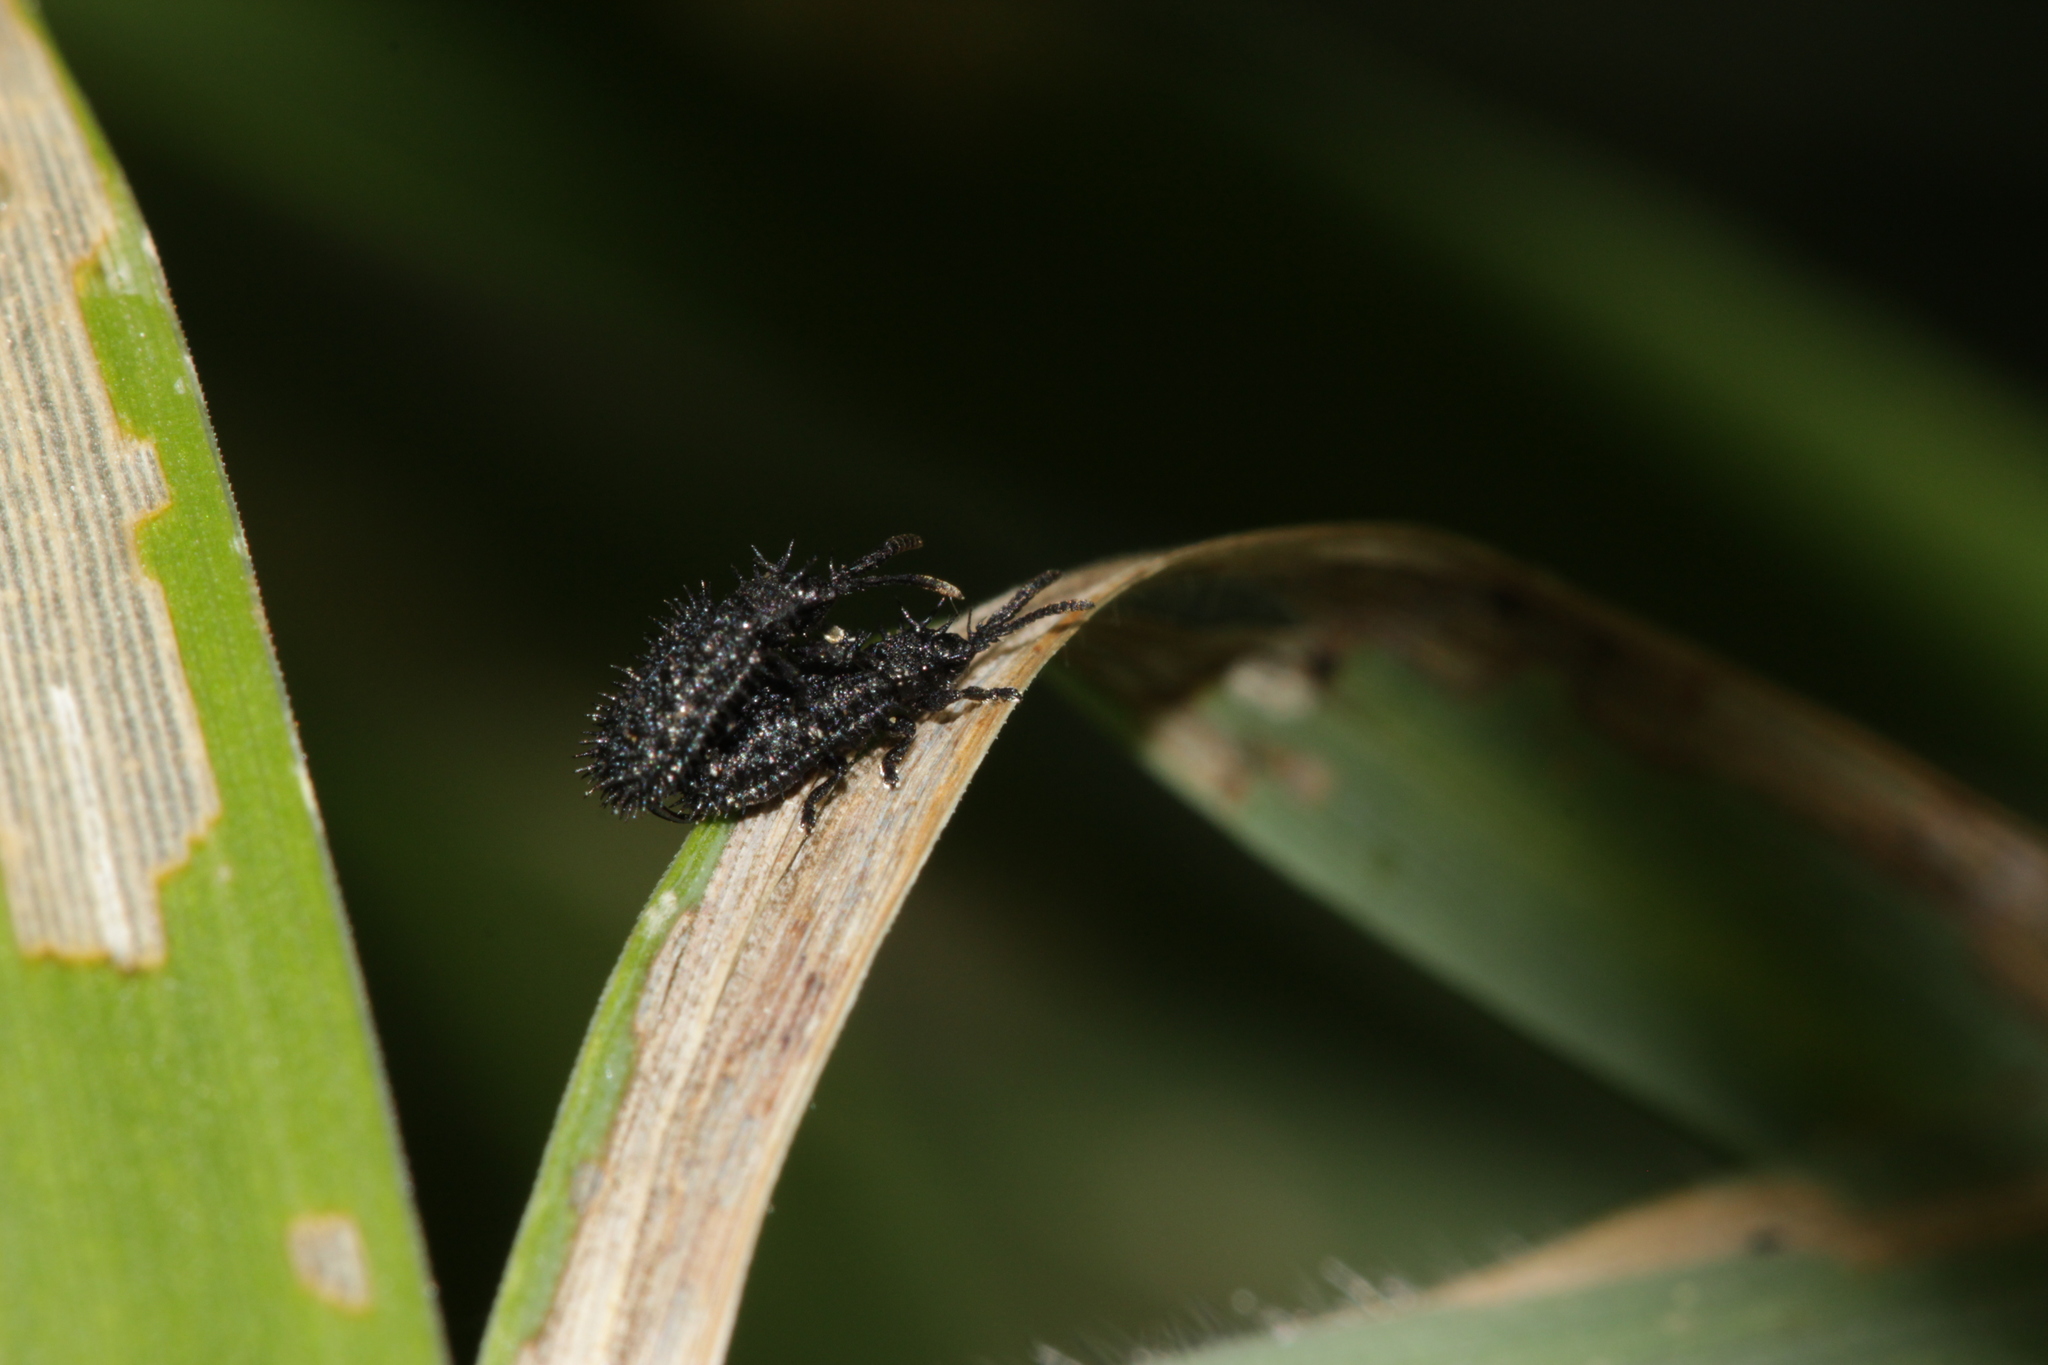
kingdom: Animalia
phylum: Arthropoda
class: Insecta
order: Coleoptera
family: Chrysomelidae
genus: Hispa
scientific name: Hispa atra
